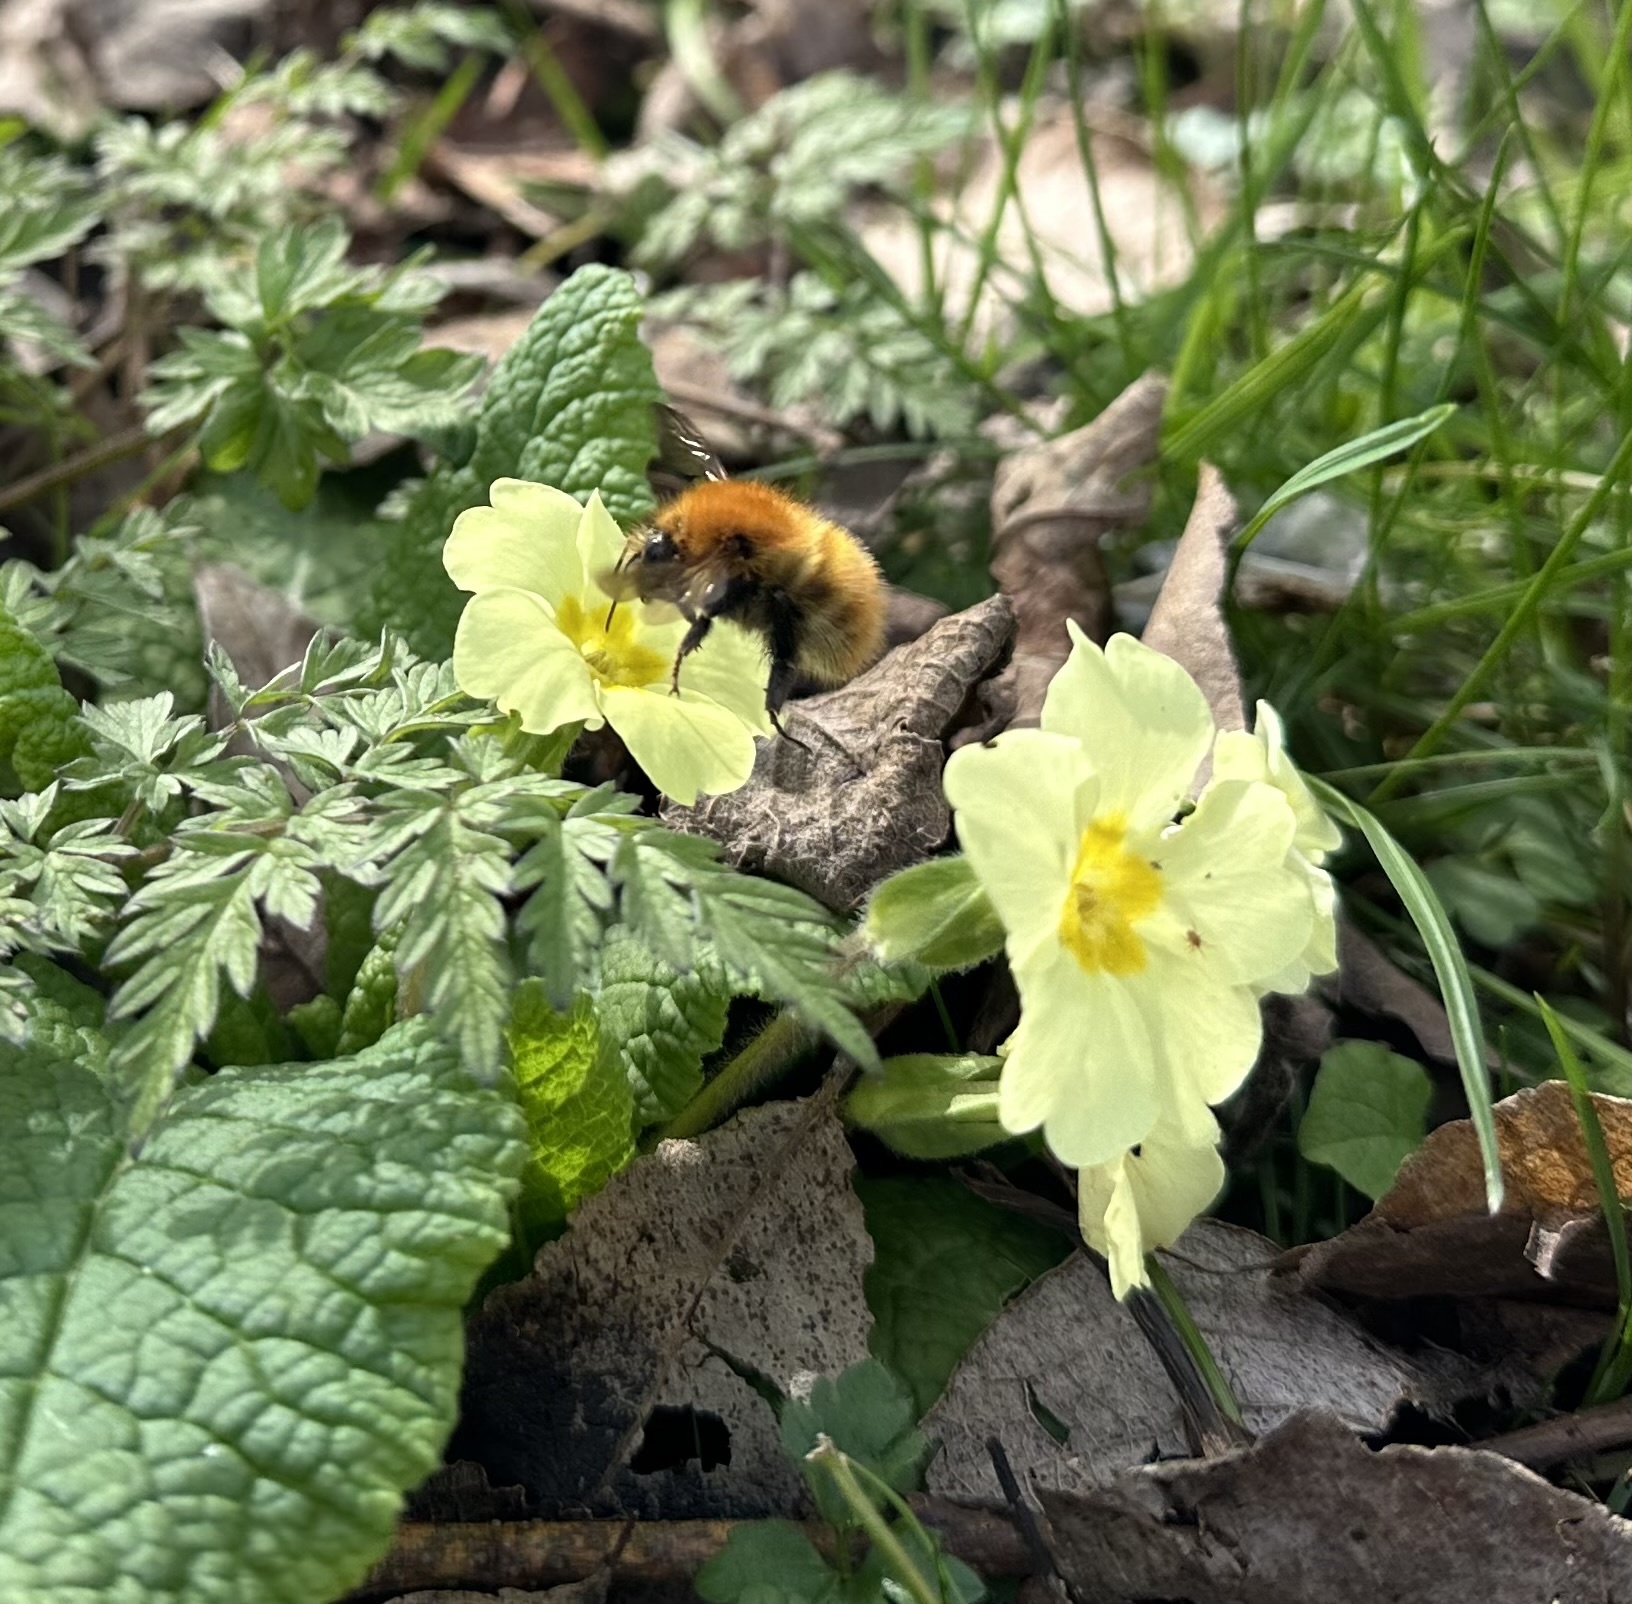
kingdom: Animalia
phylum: Arthropoda
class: Insecta
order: Hymenoptera
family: Apidae
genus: Bombus
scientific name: Bombus pascuorum
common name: Common carder bee
